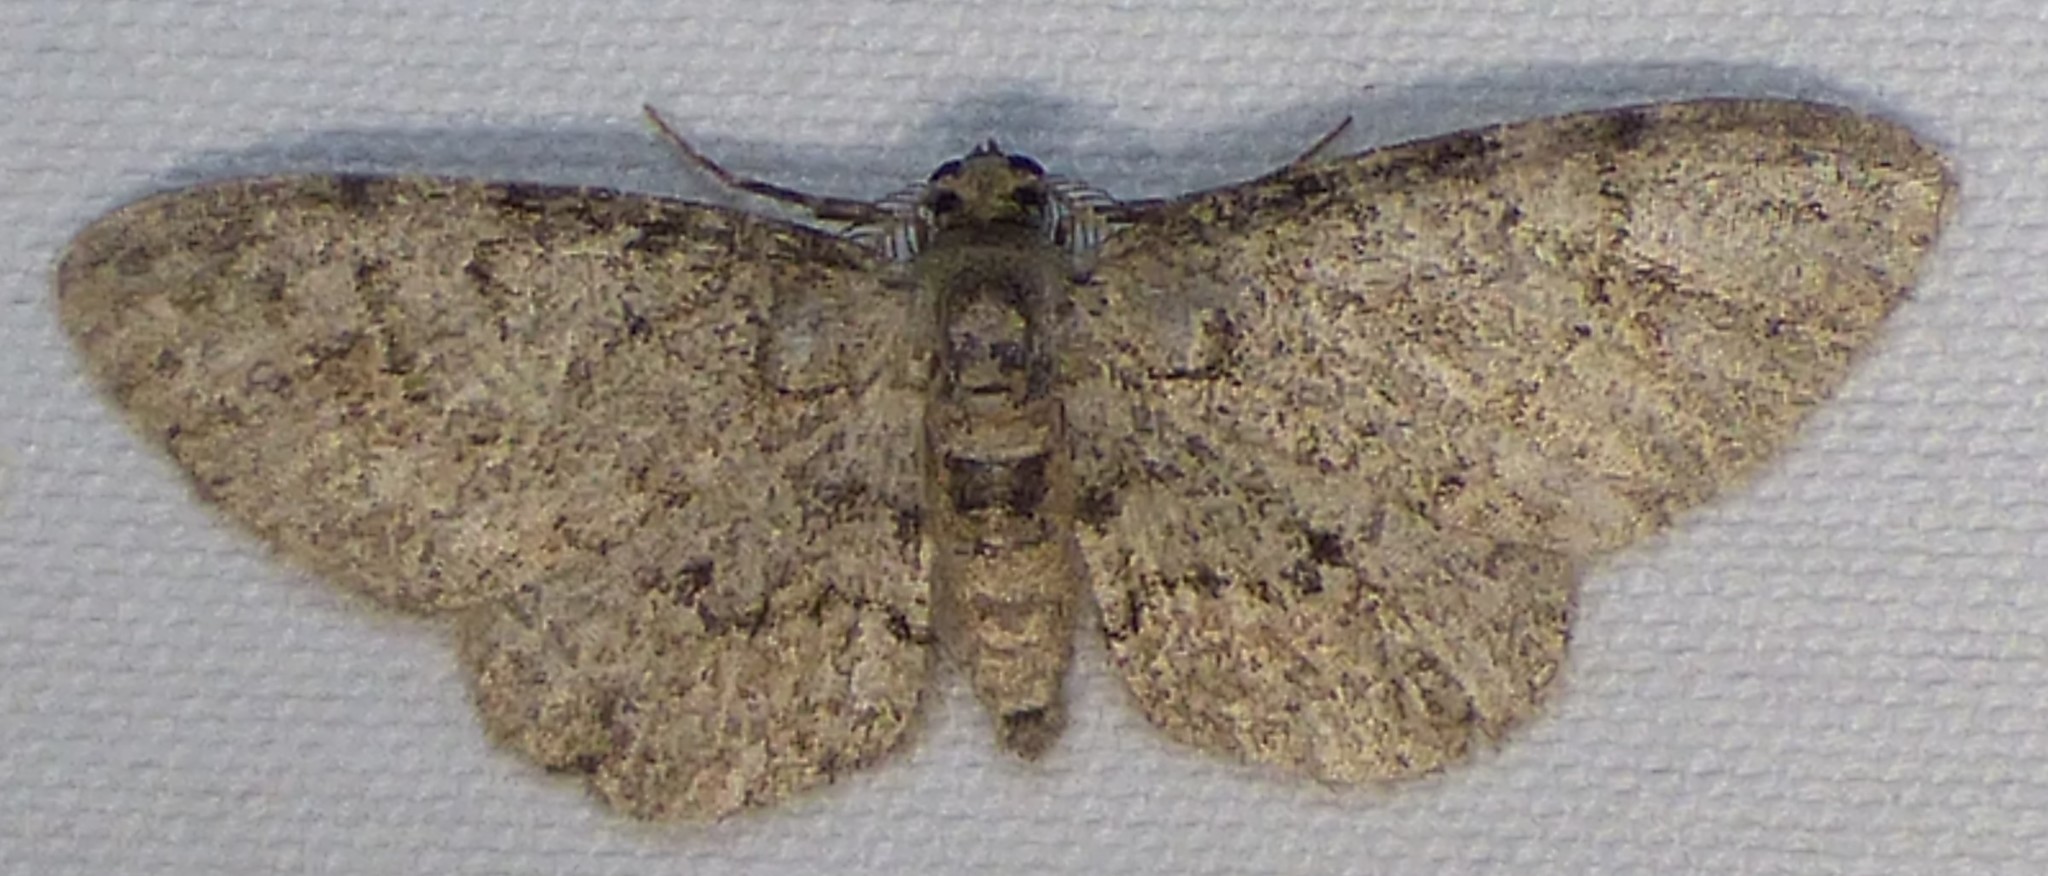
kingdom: Animalia
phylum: Arthropoda
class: Insecta
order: Lepidoptera
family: Geometridae
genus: Glenoides
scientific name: Glenoides texanaria
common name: Texas gray
